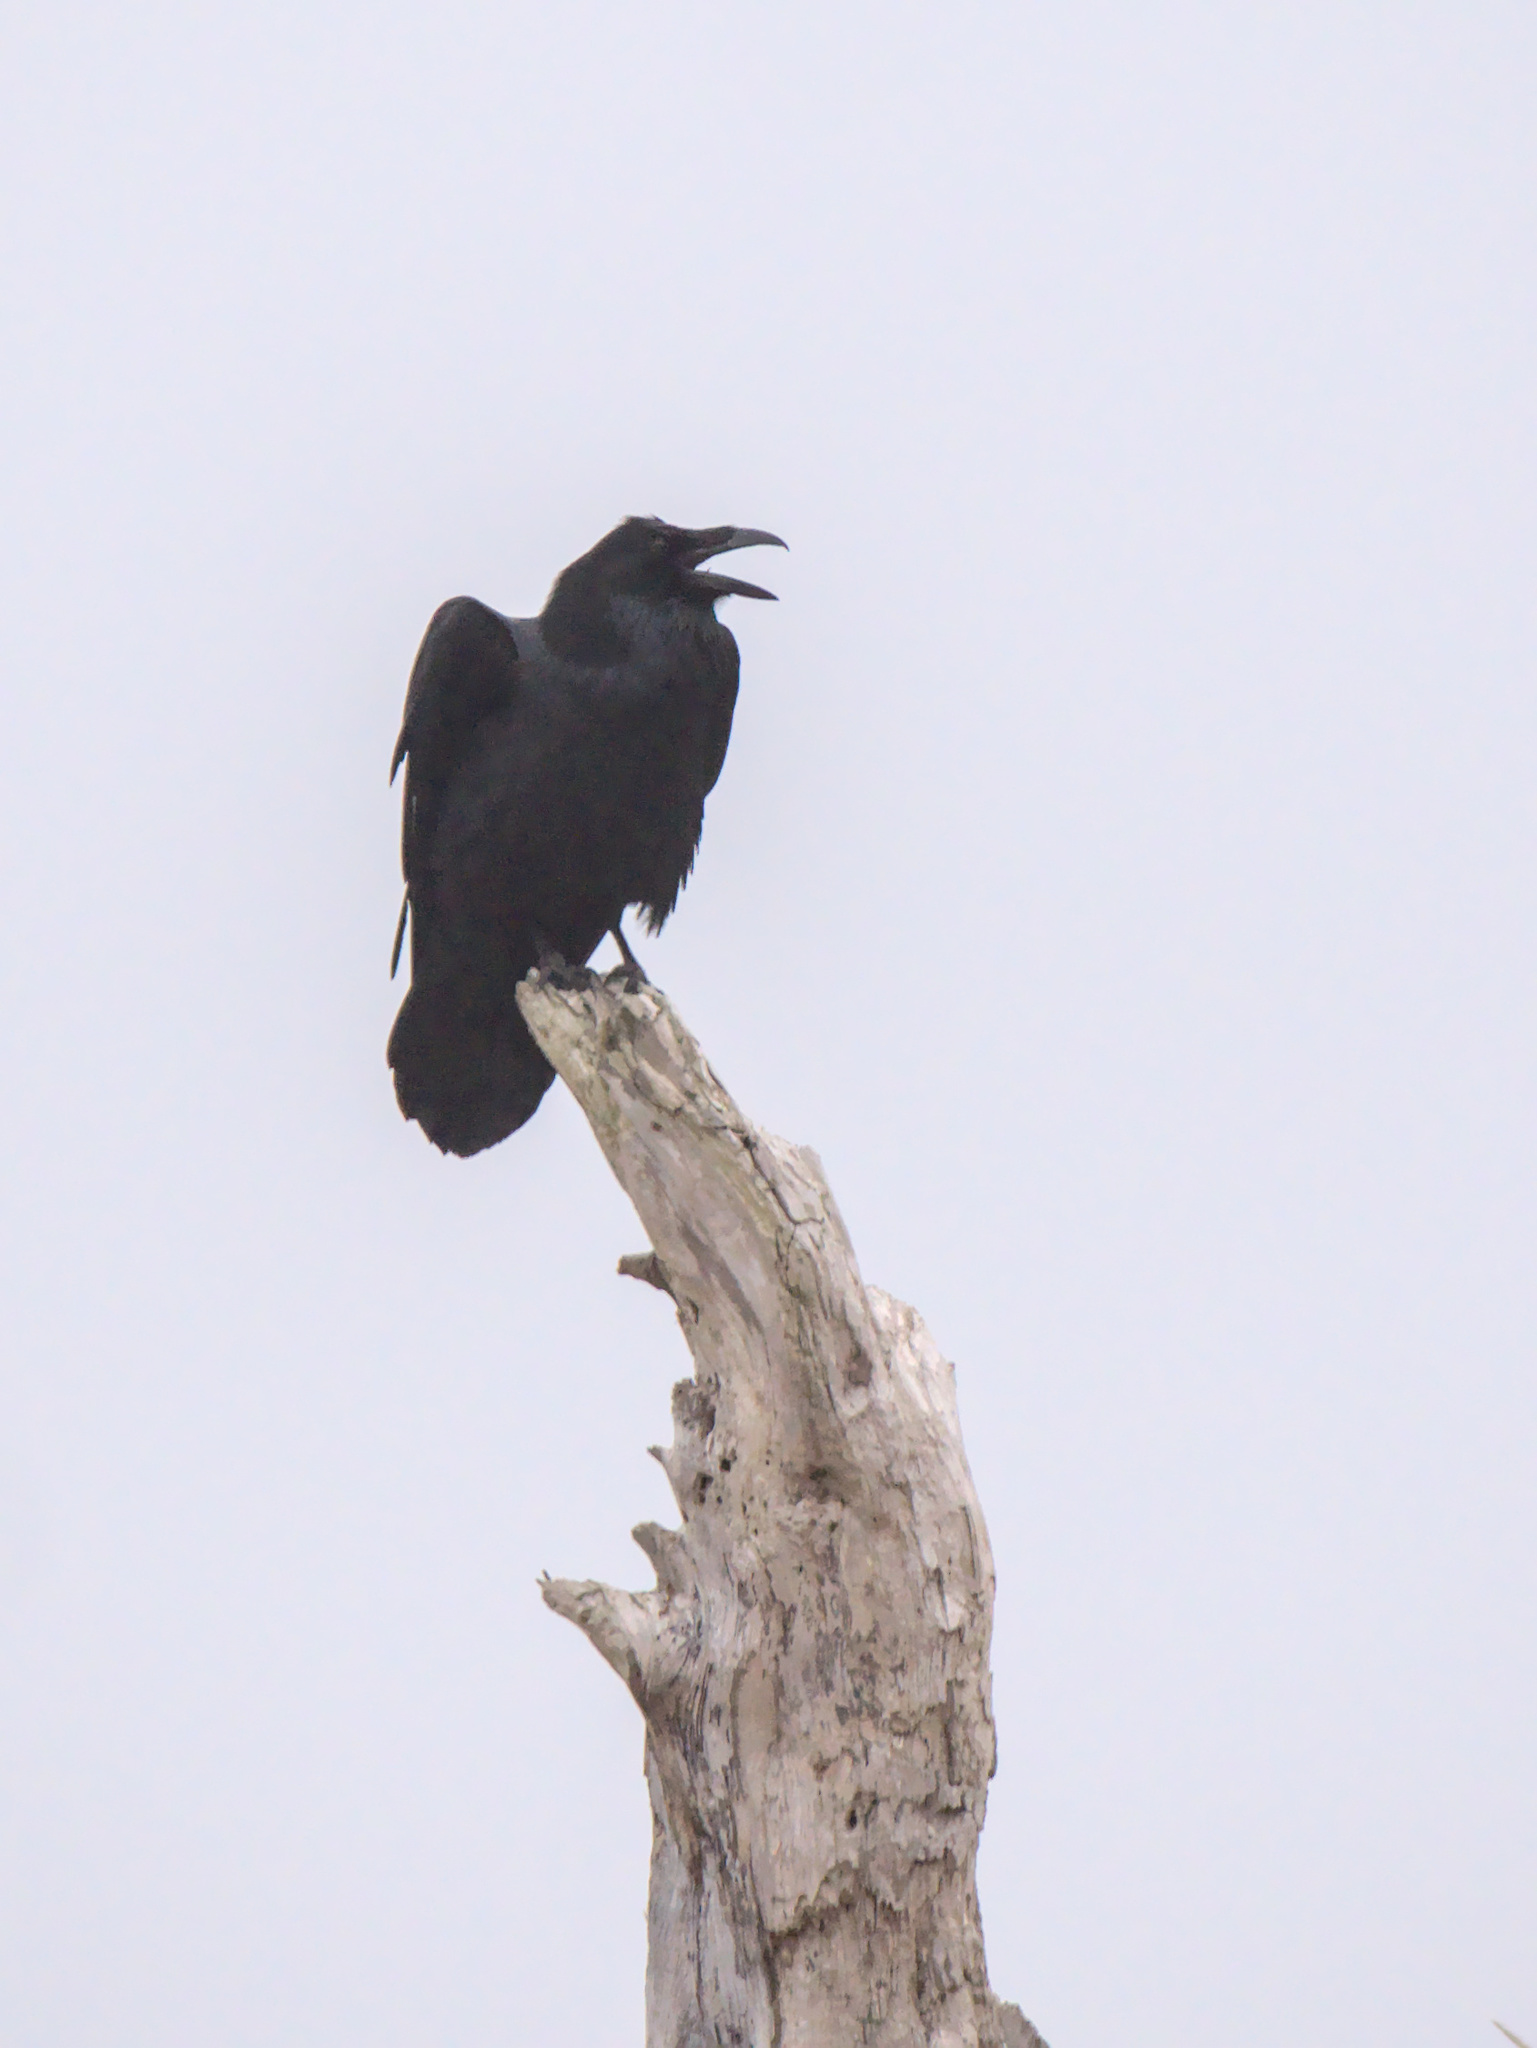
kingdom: Animalia
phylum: Chordata
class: Aves
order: Passeriformes
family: Corvidae
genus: Corvus
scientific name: Corvus corax
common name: Common raven
